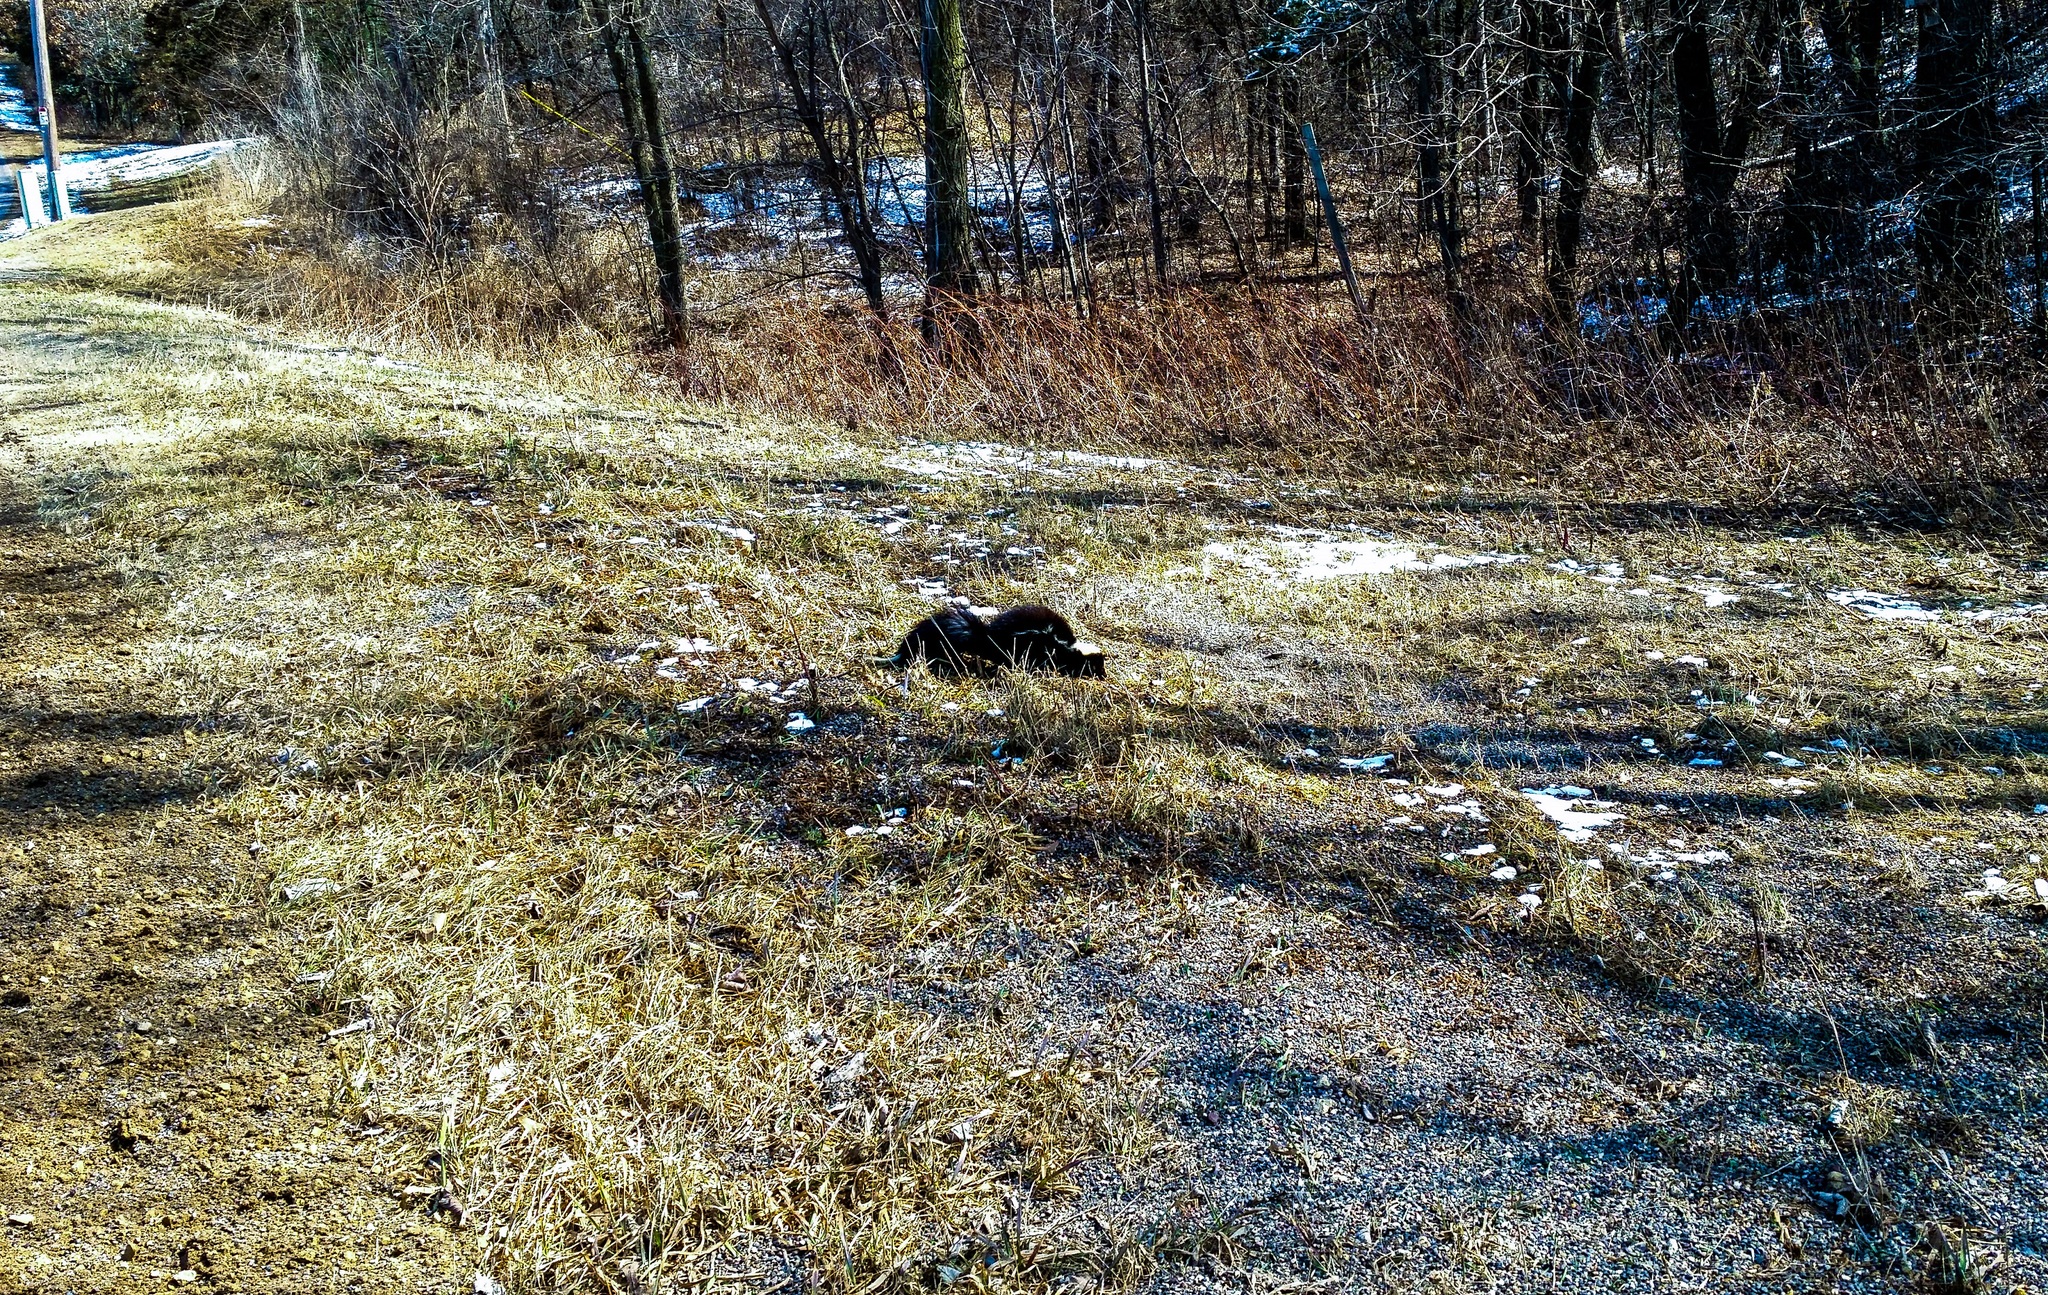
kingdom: Animalia
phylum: Chordata
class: Mammalia
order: Carnivora
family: Mephitidae
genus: Mephitis
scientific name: Mephitis mephitis
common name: Striped skunk
